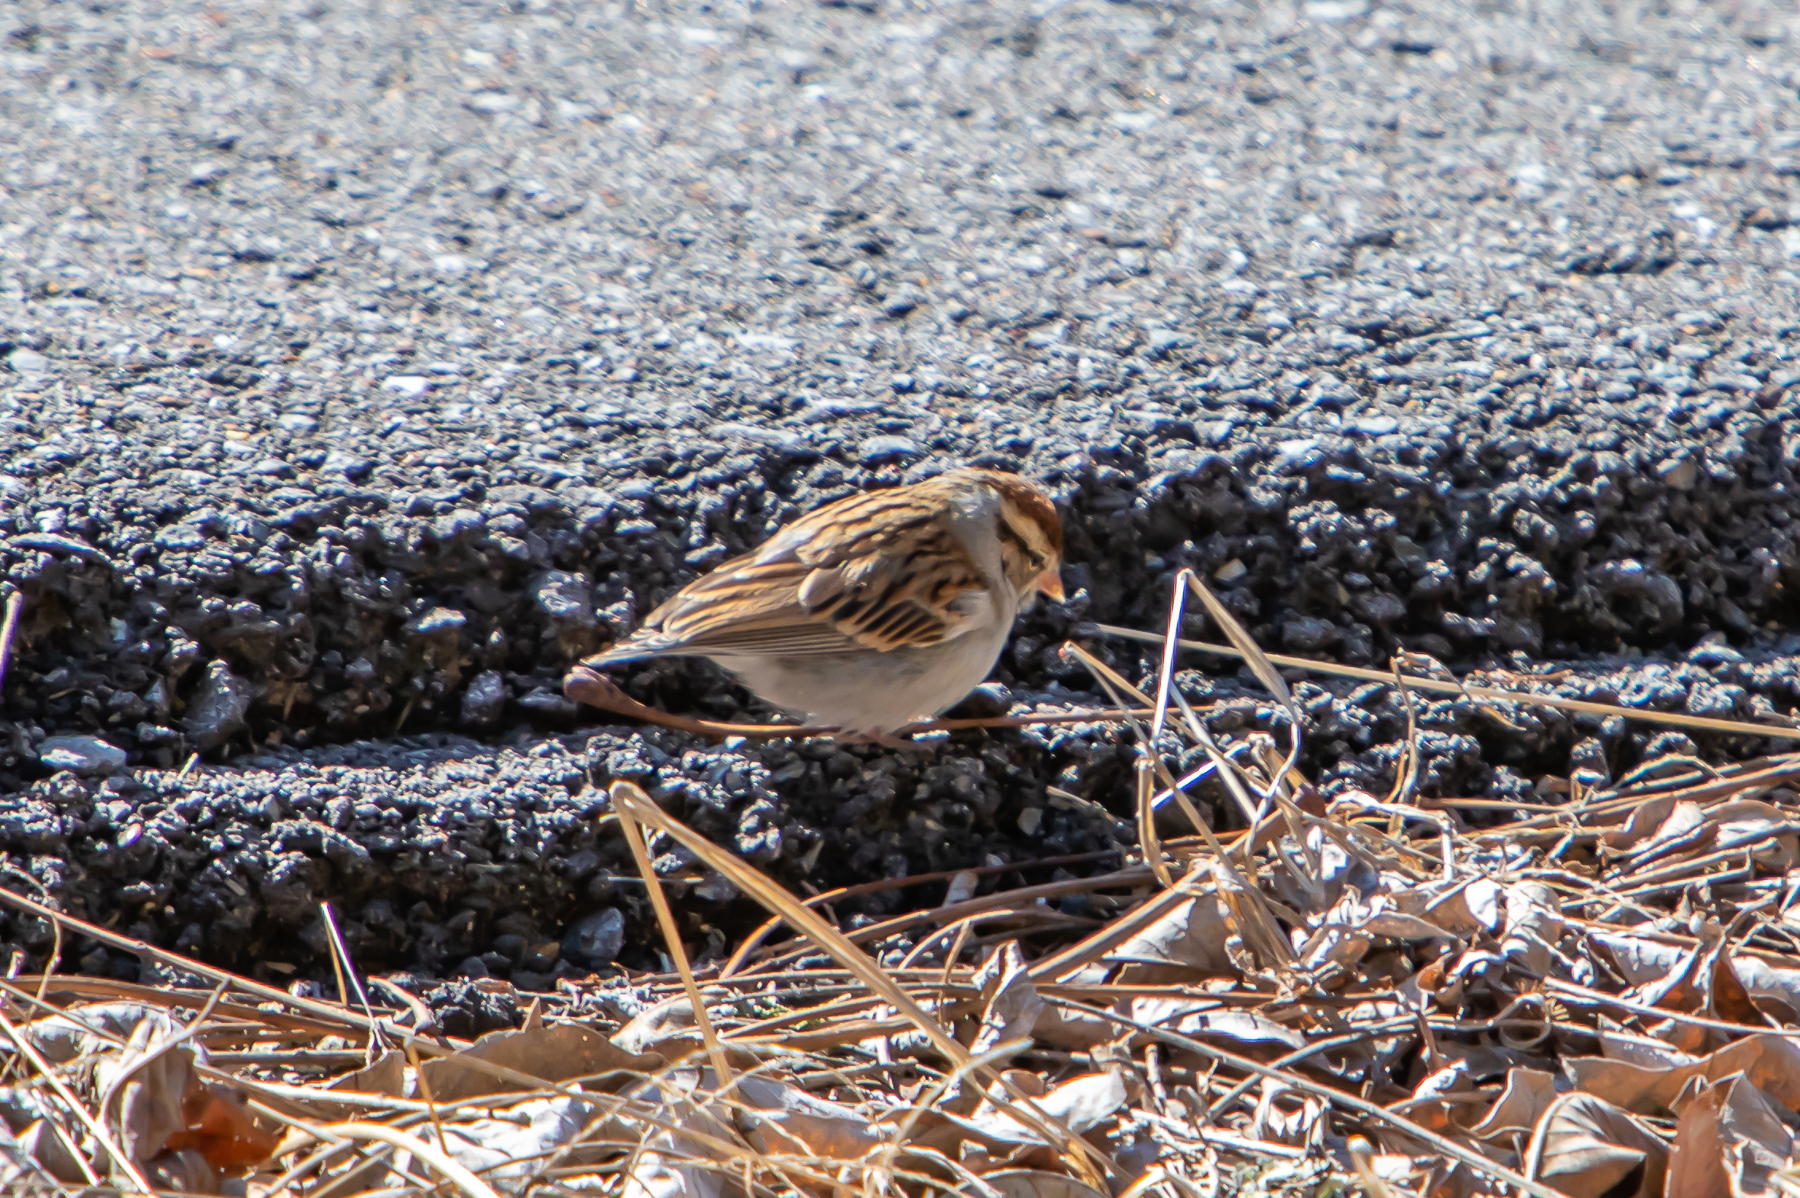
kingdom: Animalia
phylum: Chordata
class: Aves
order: Passeriformes
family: Passerellidae
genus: Spizella
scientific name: Spizella passerina
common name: Chipping sparrow
